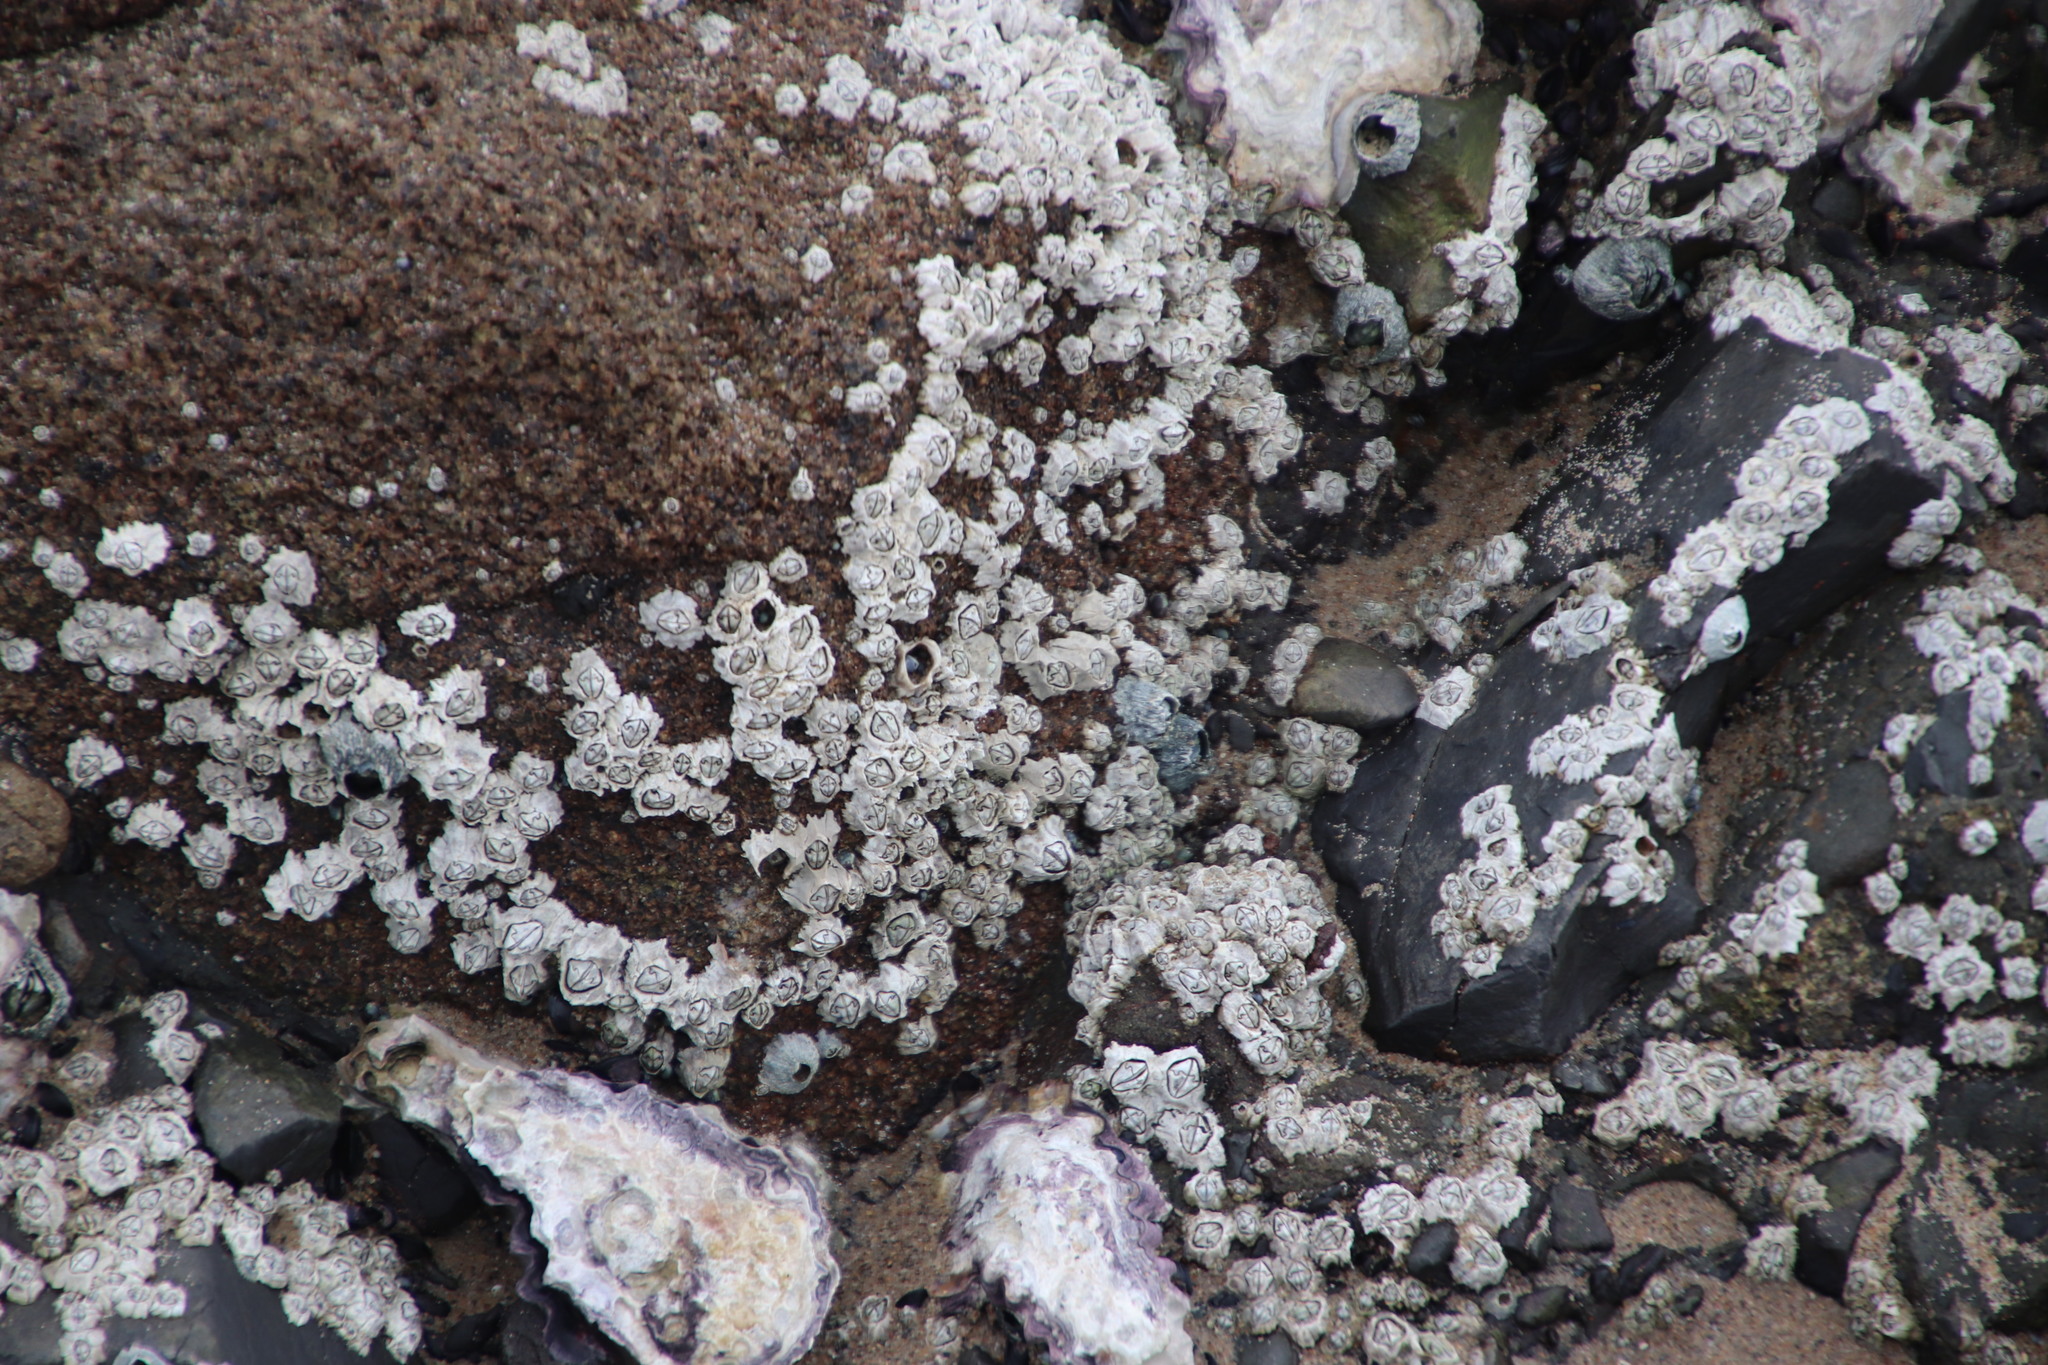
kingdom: Animalia
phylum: Arthropoda
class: Maxillopoda
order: Sessilia
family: Chthamalidae
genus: Chthamalus
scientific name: Chthamalus dentatus
